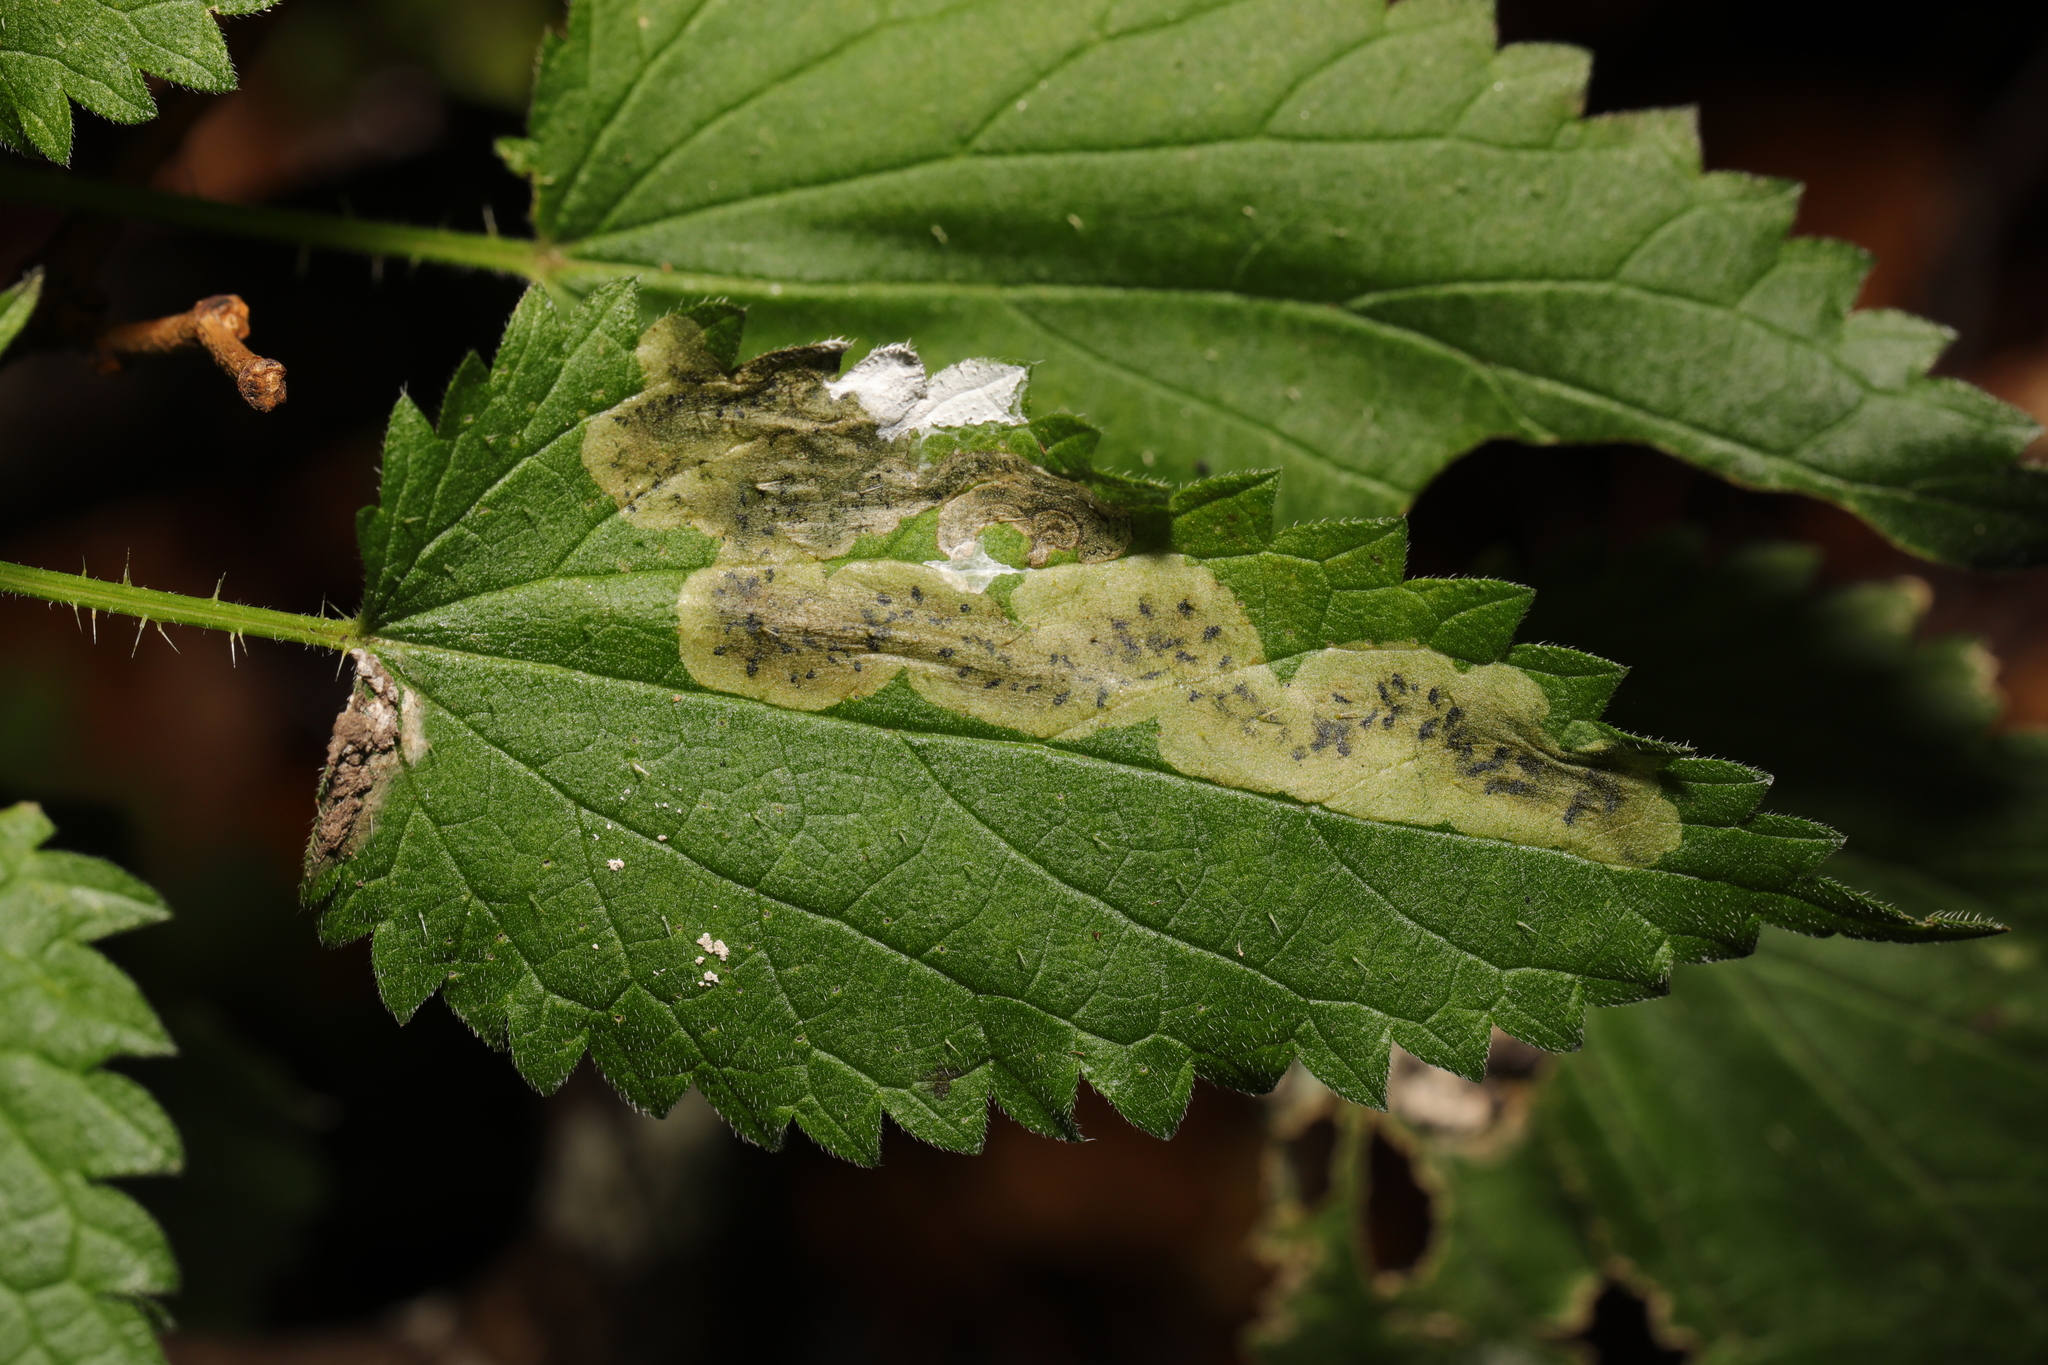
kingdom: Animalia
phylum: Arthropoda
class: Insecta
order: Diptera
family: Agromyzidae
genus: Agromyza
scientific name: Agromyza anthracina
